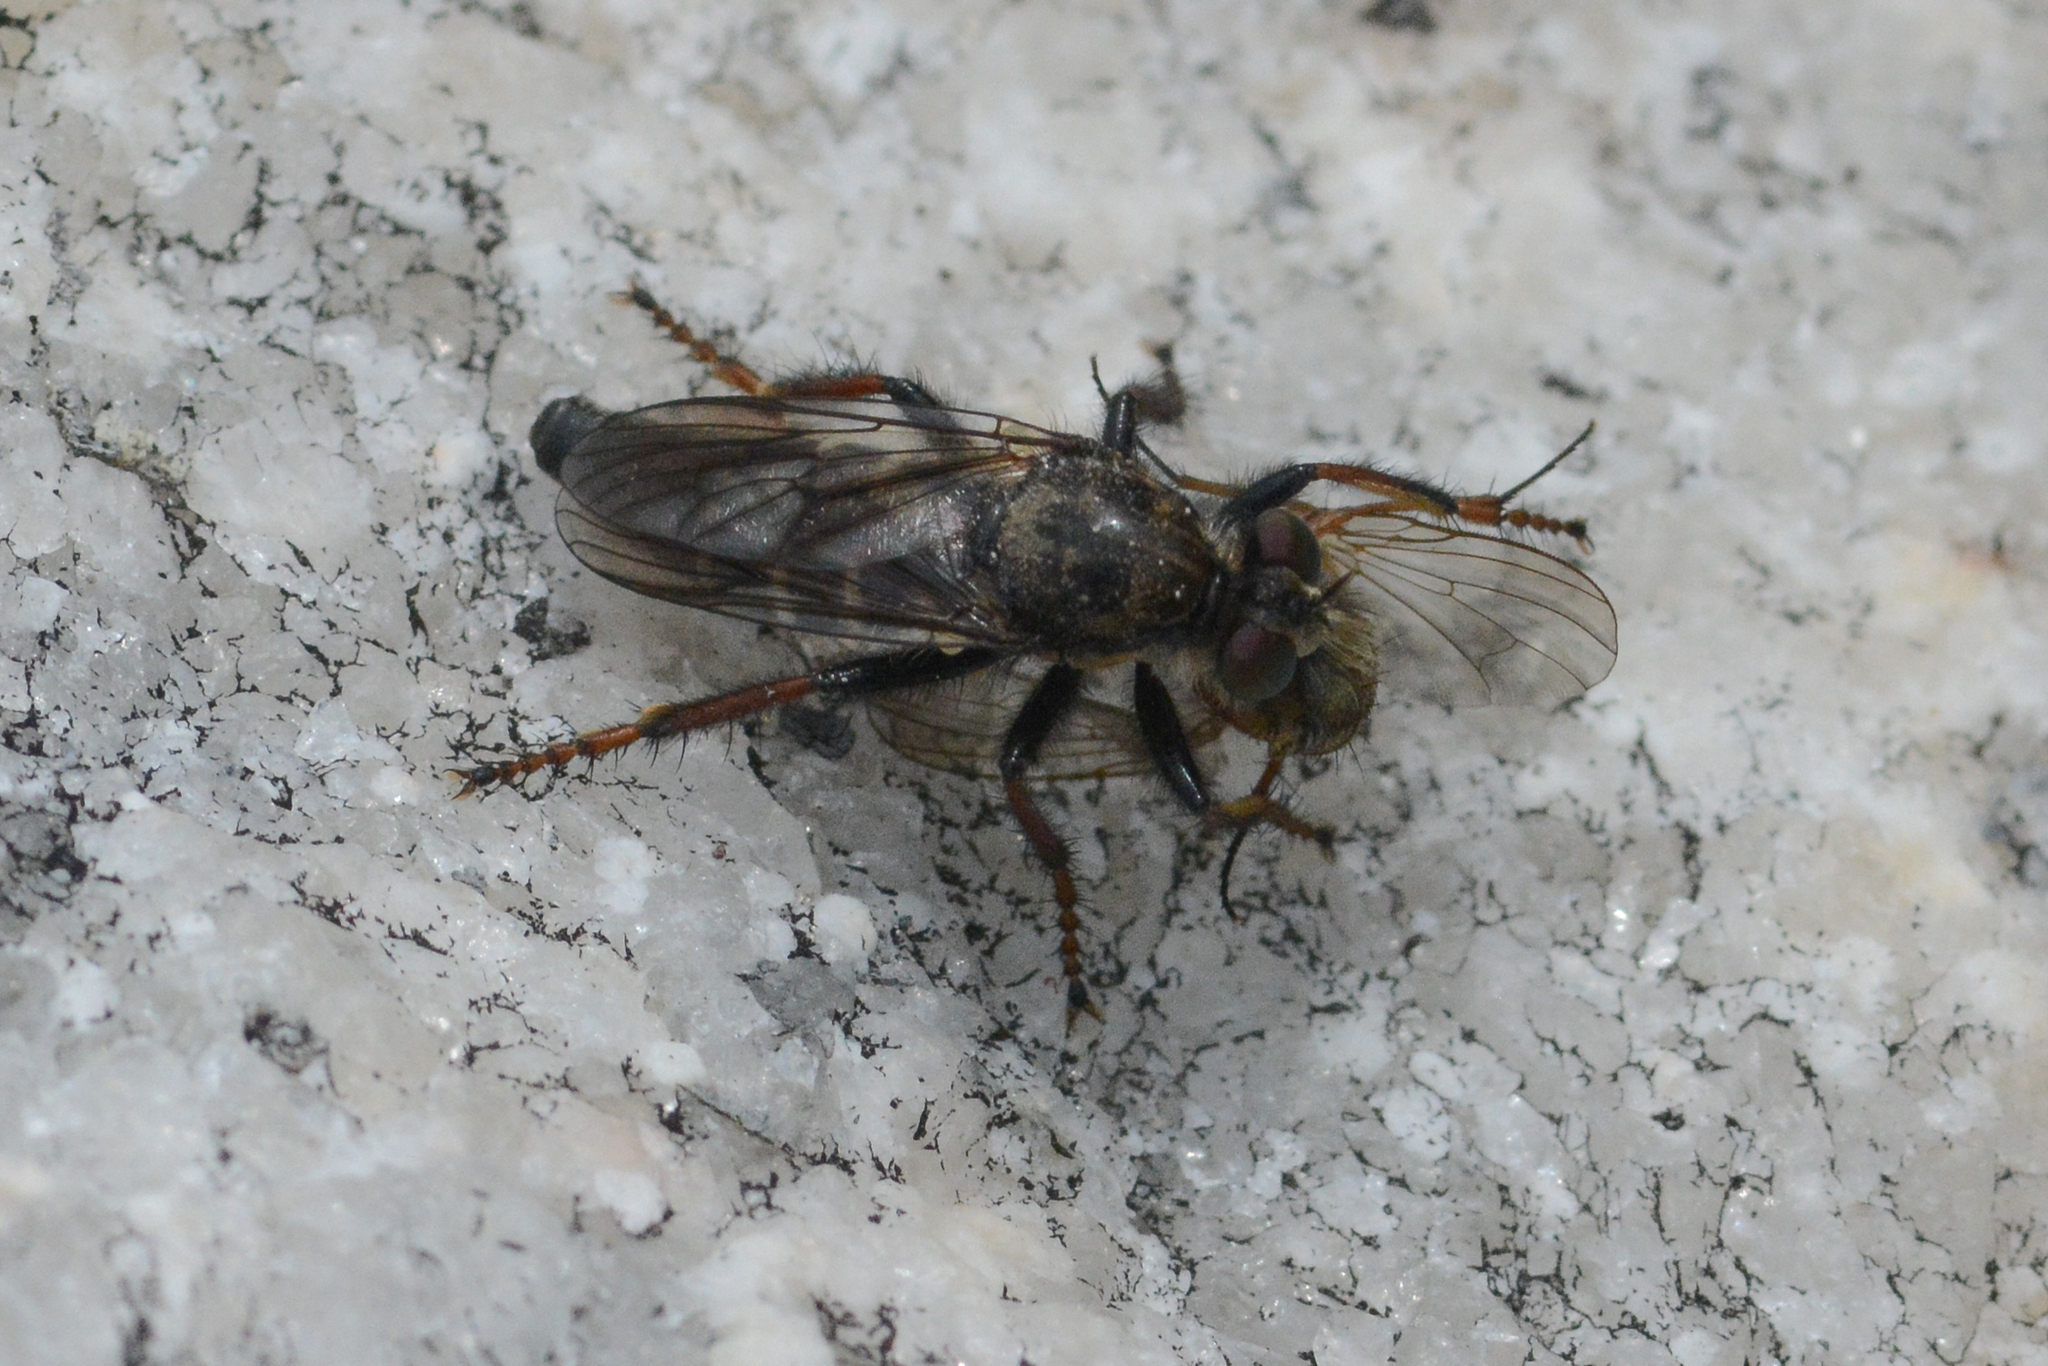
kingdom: Animalia
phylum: Arthropoda
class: Insecta
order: Diptera
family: Asilidae
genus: Cyrtopogon
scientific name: Cyrtopogon bimaculus
